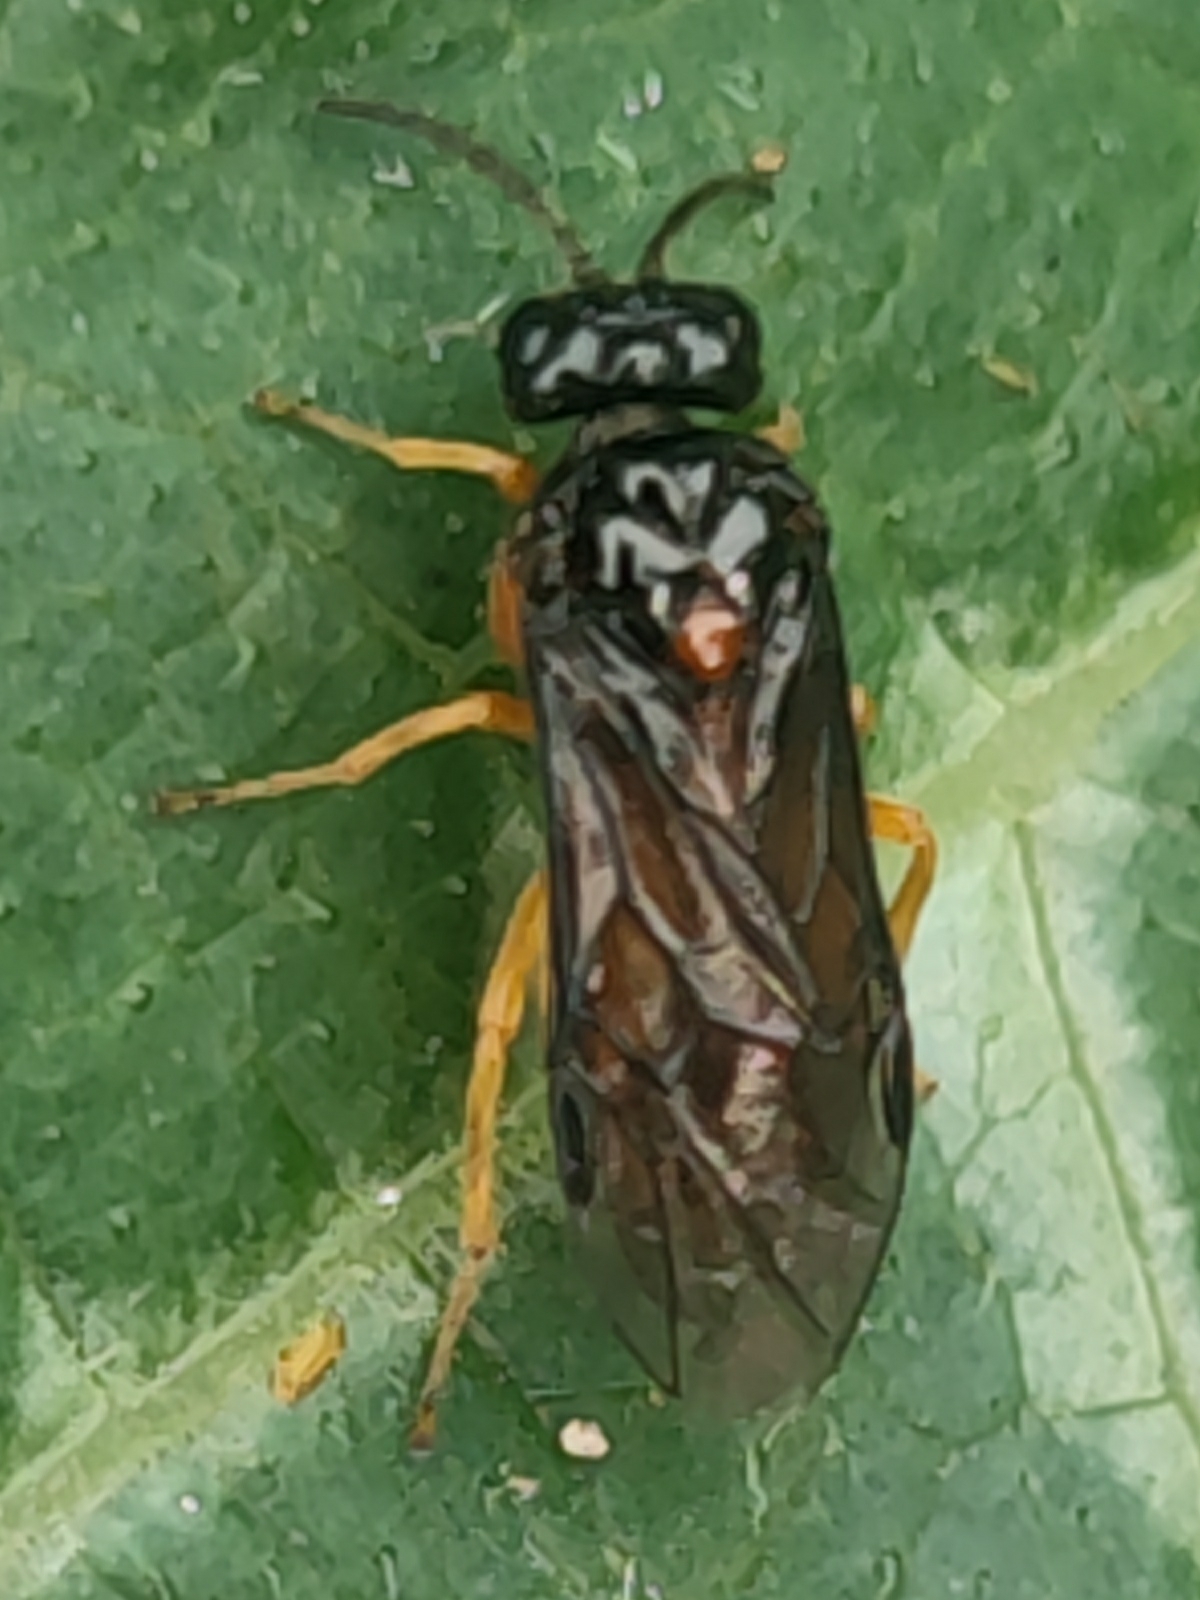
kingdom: Animalia
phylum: Arthropoda
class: Insecta
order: Hymenoptera
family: Tenthredinidae
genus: Monophadnus
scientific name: Monophadnus spinolae
